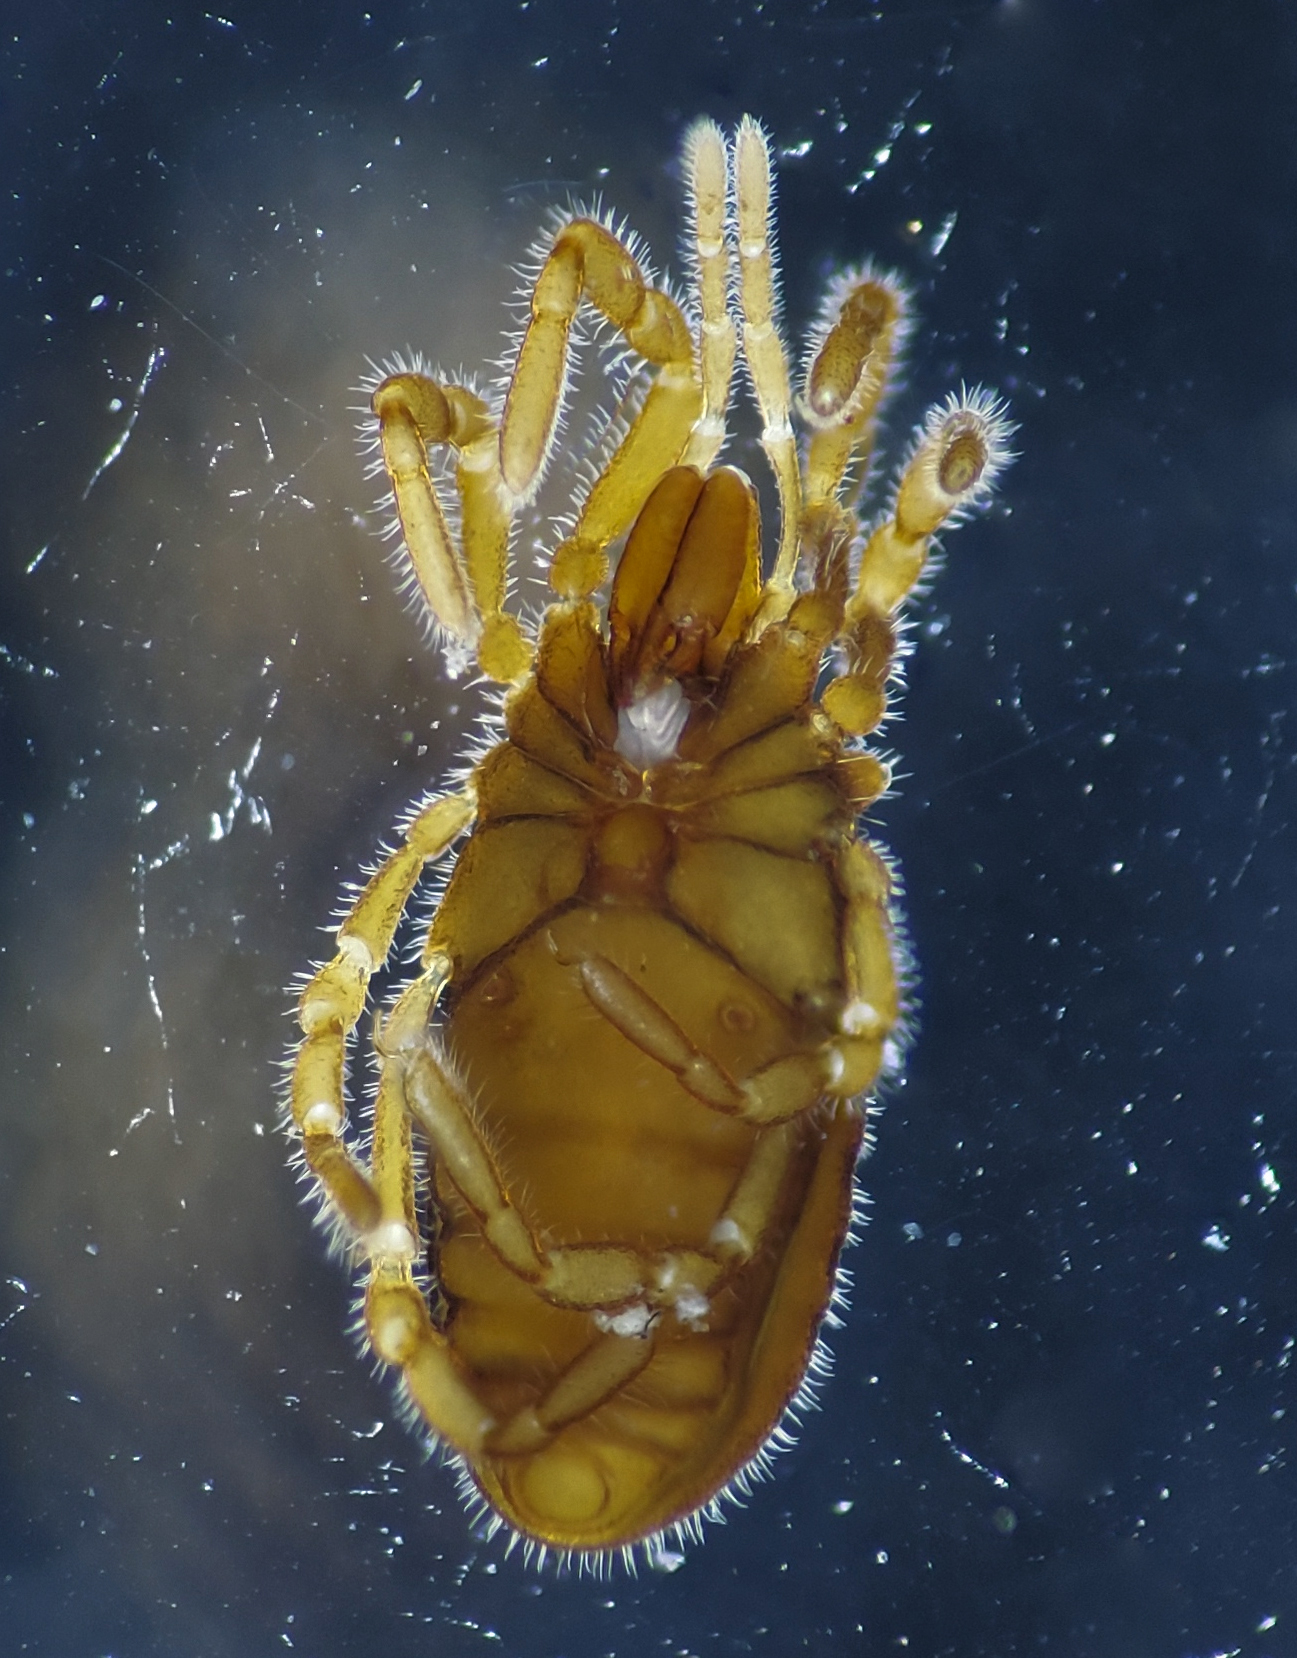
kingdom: Animalia
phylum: Arthropoda
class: Arachnida
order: Opiliones
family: Sironidae
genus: Neosiro
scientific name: Neosiro exilis
